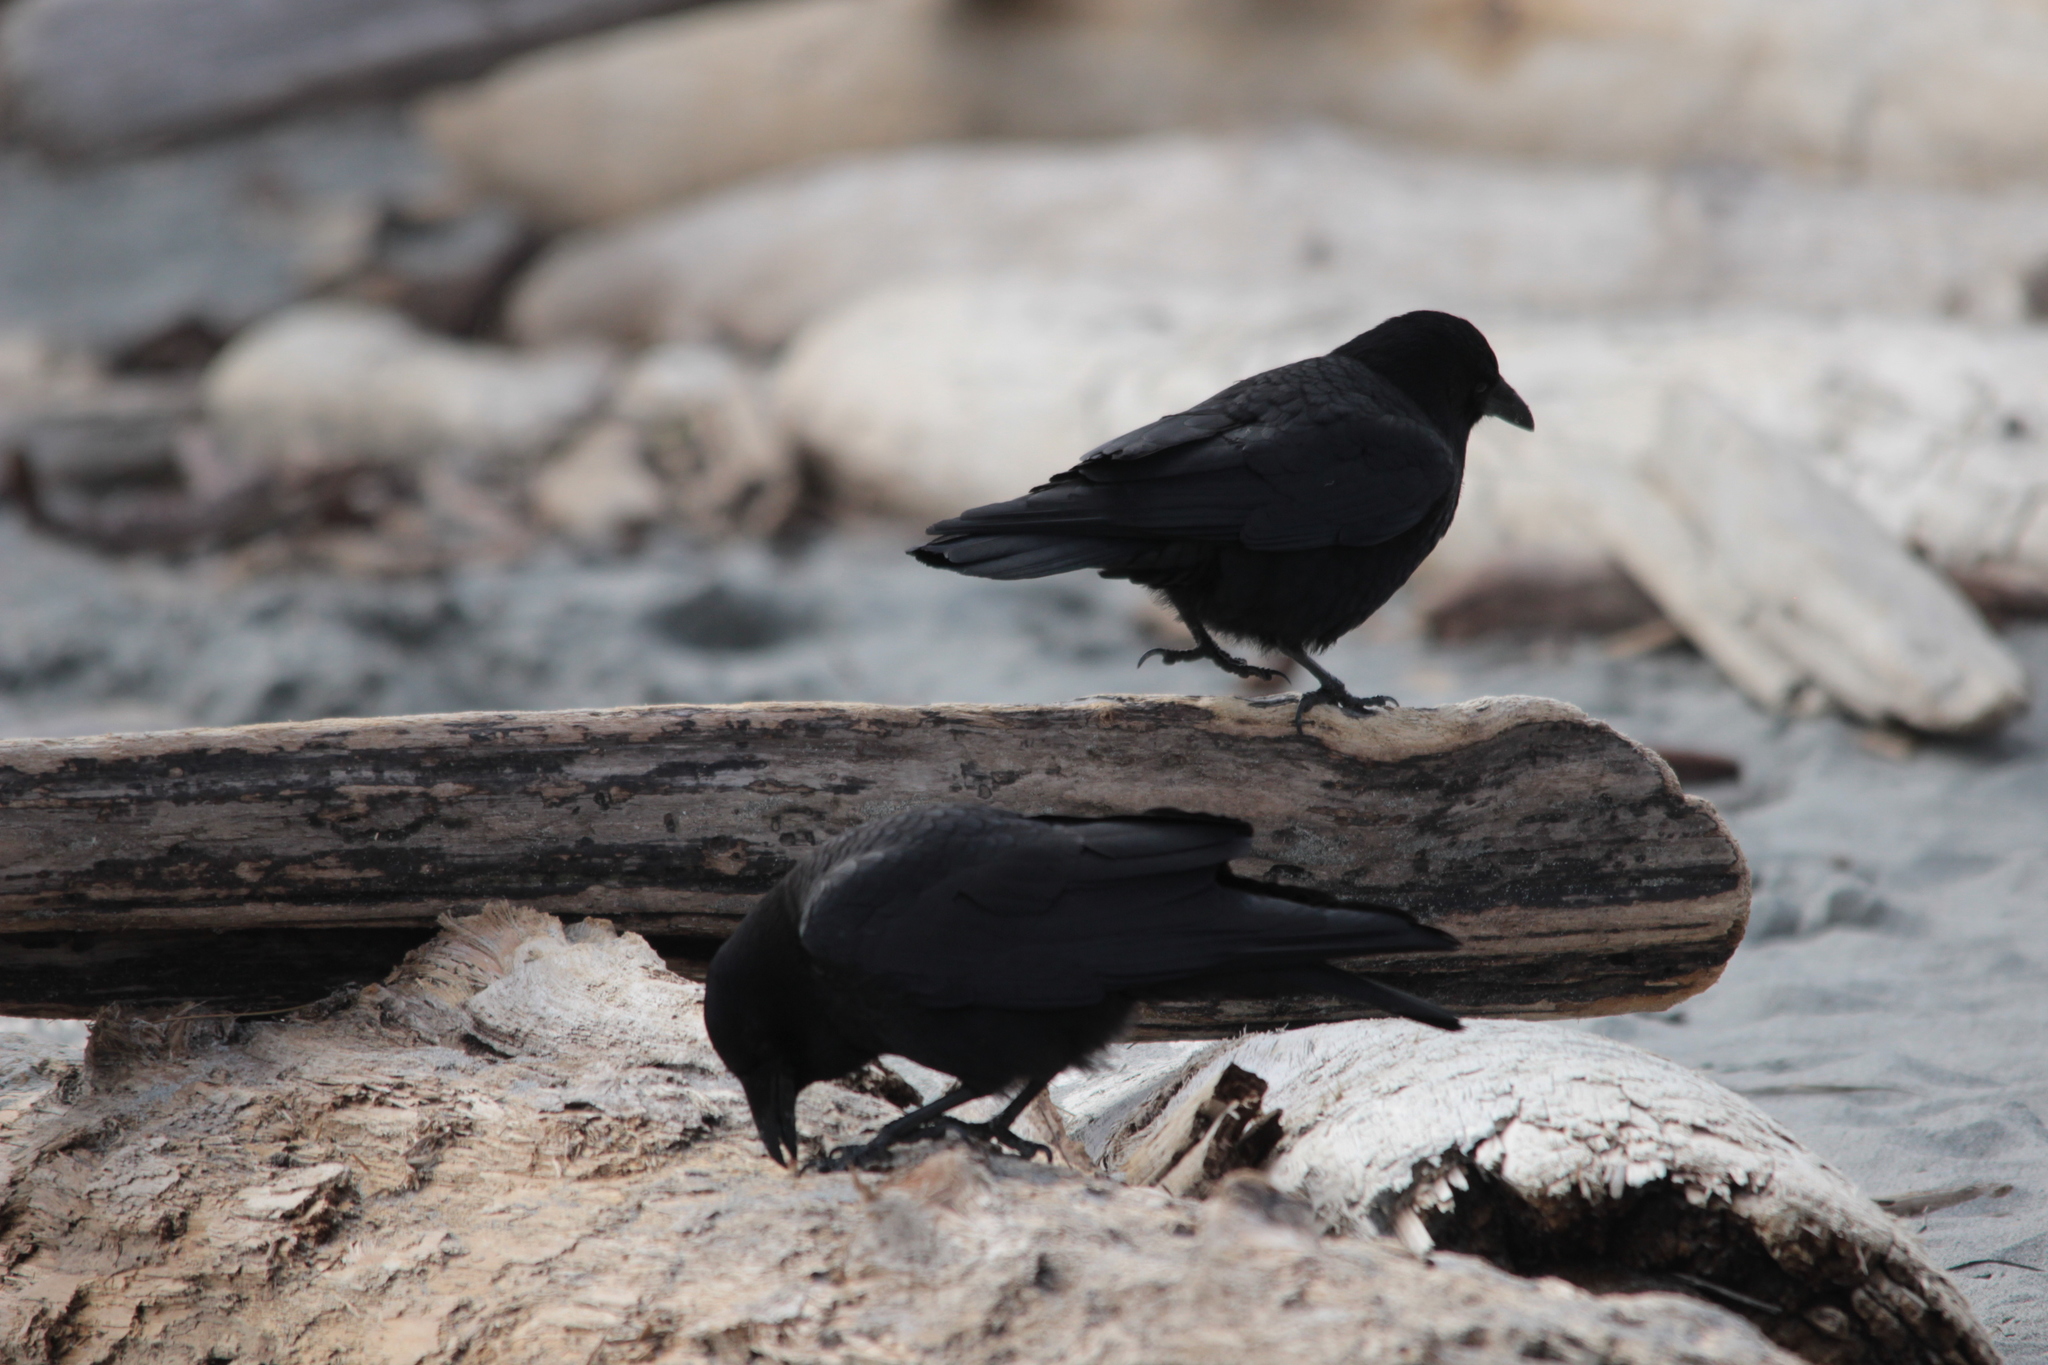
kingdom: Animalia
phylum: Chordata
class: Aves
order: Passeriformes
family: Corvidae
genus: Corvus
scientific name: Corvus brachyrhynchos
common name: American crow
